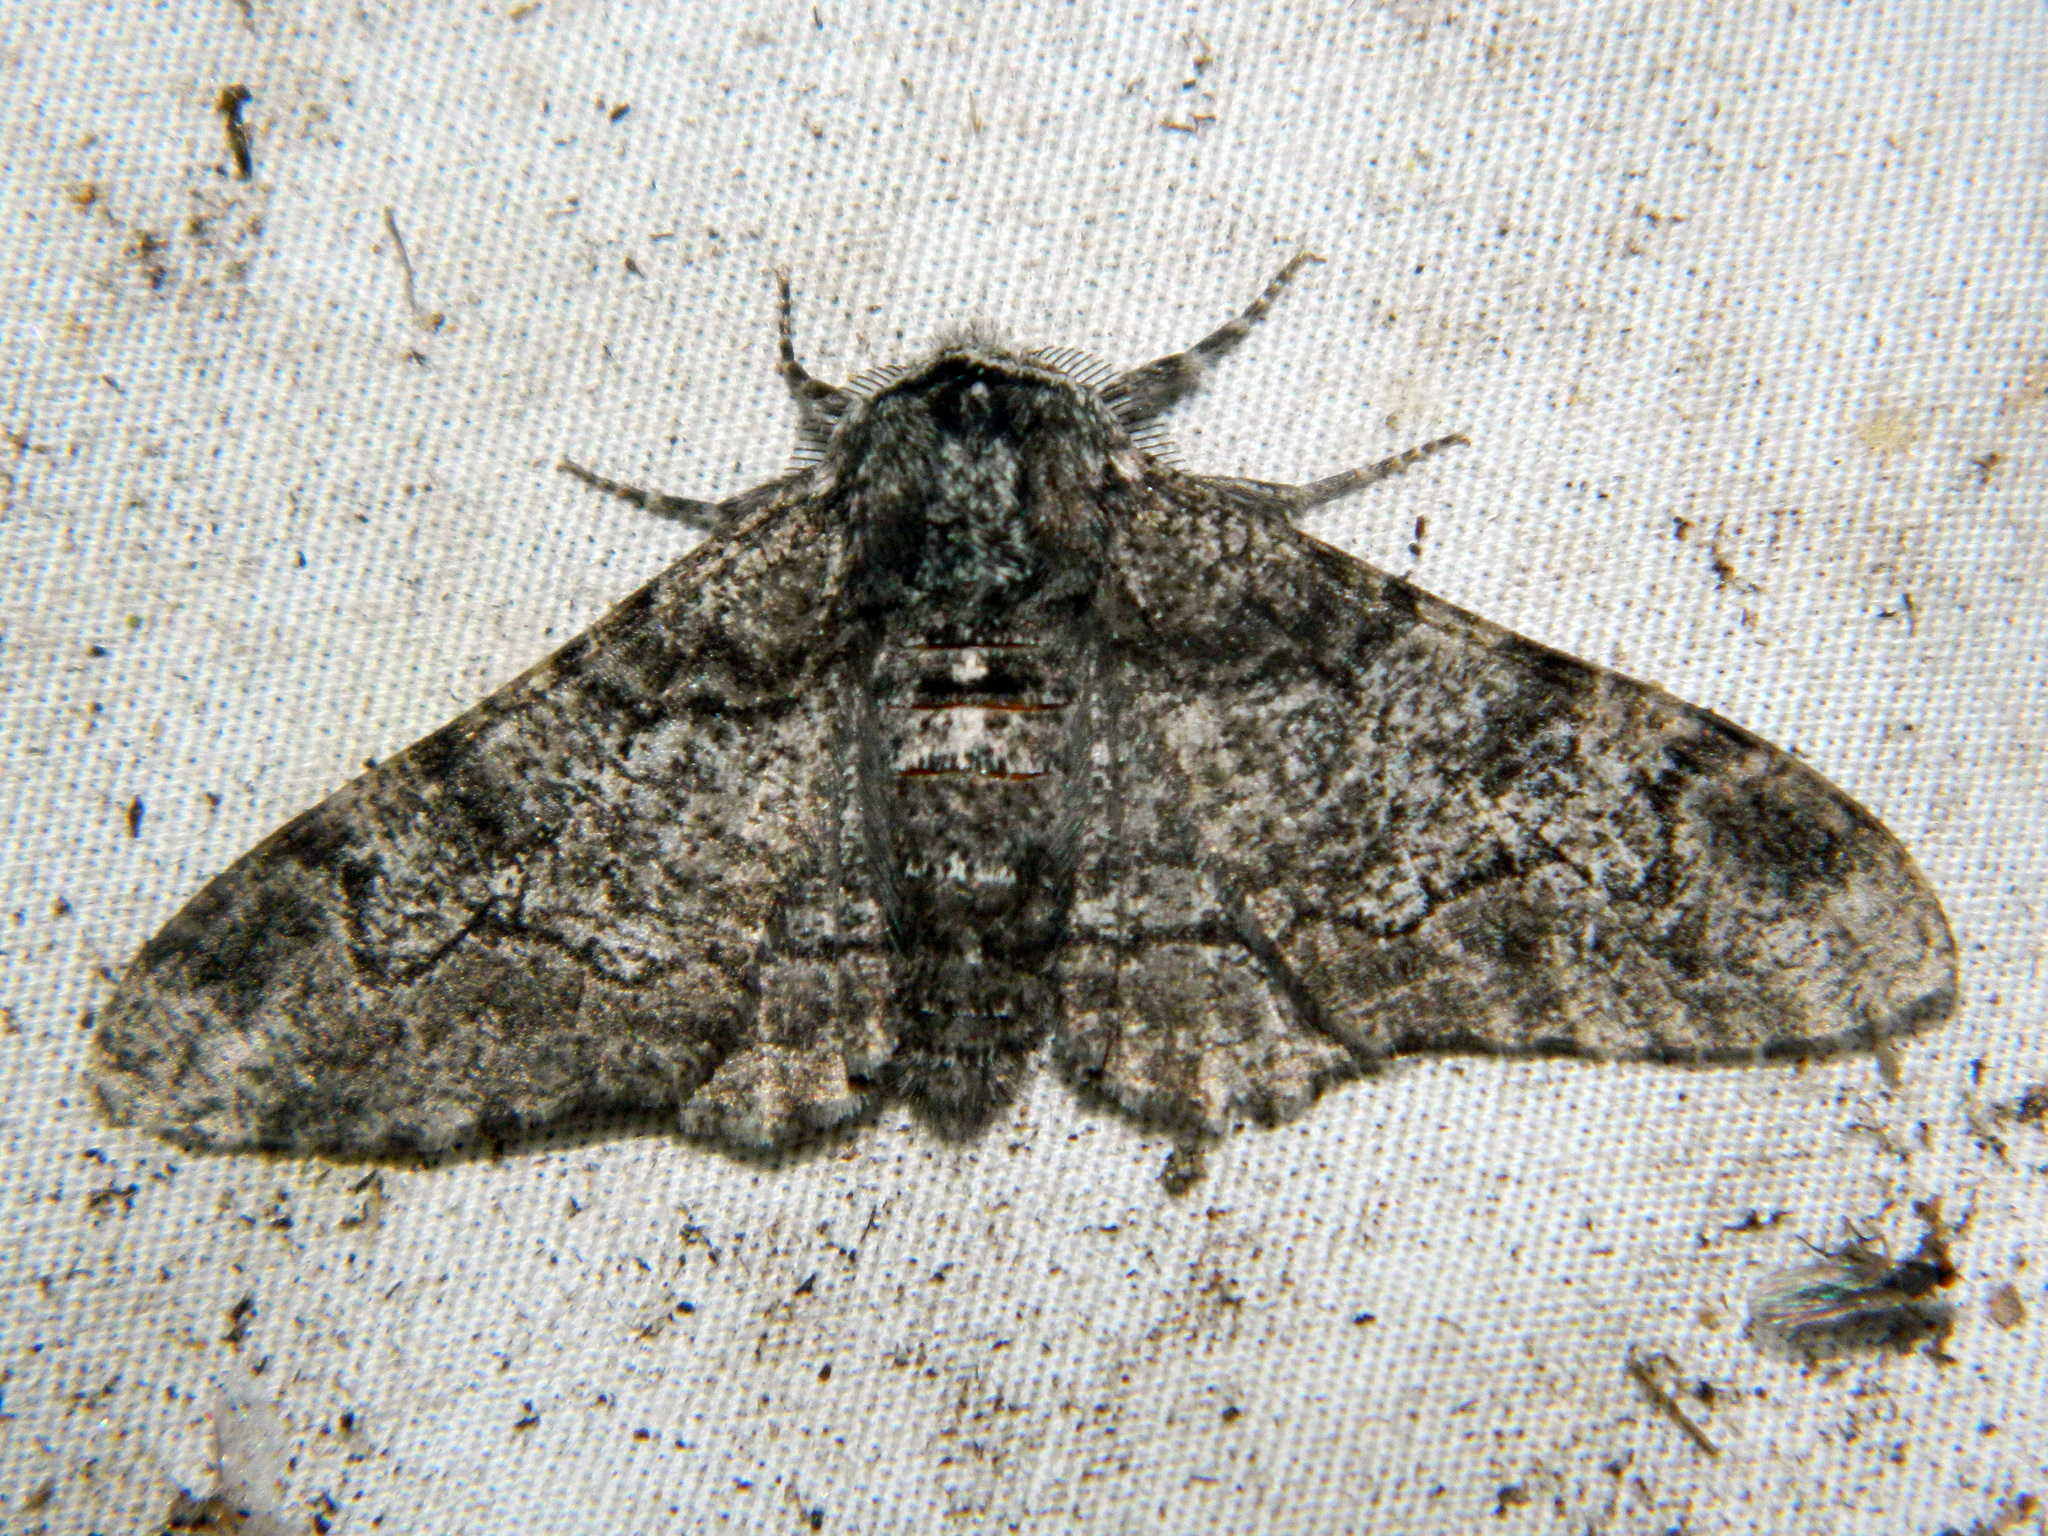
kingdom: Animalia
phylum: Arthropoda
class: Insecta
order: Lepidoptera
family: Geometridae
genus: Biston
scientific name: Biston betularia
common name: Peppered moth
